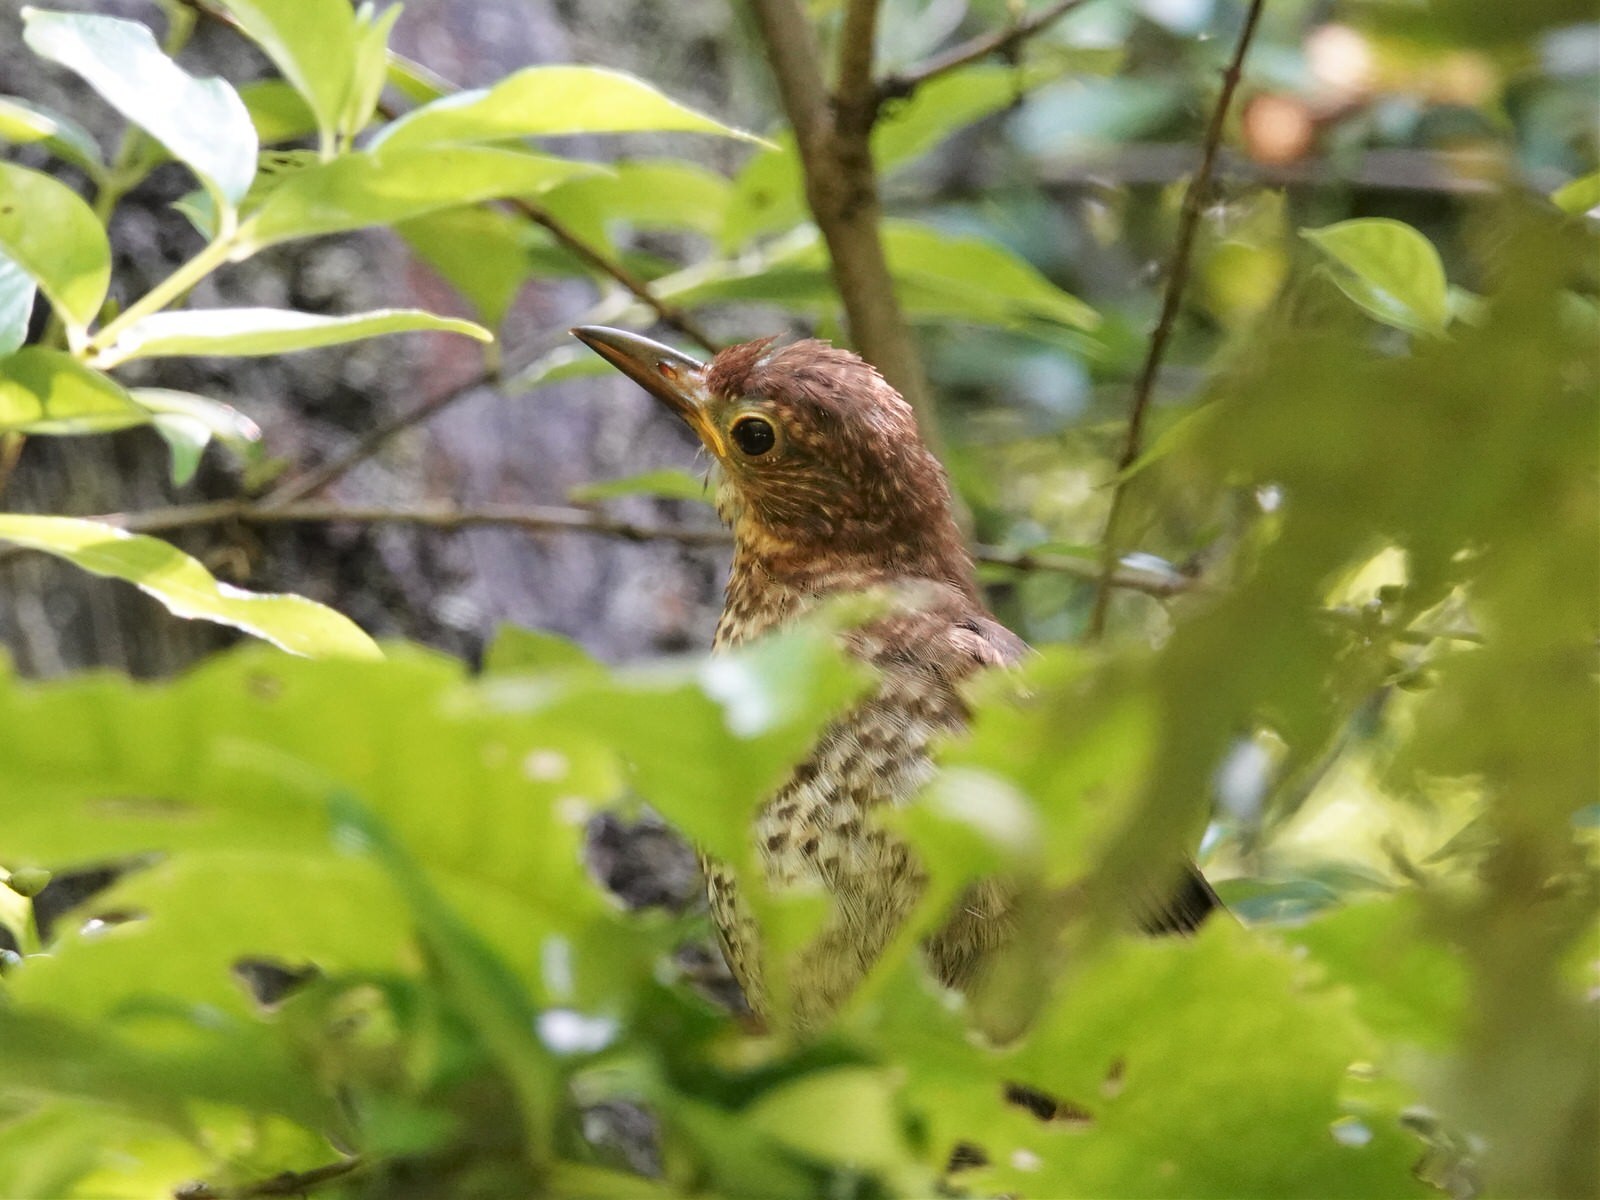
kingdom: Animalia
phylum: Chordata
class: Aves
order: Passeriformes
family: Turdidae
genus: Turdus
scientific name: Turdus merula
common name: Common blackbird
